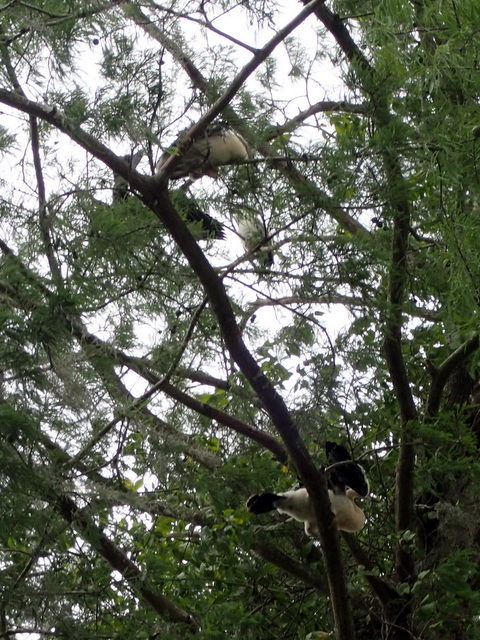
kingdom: Animalia
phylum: Chordata
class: Aves
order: Suliformes
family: Anhingidae
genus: Anhinga
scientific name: Anhinga anhinga
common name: Anhinga
